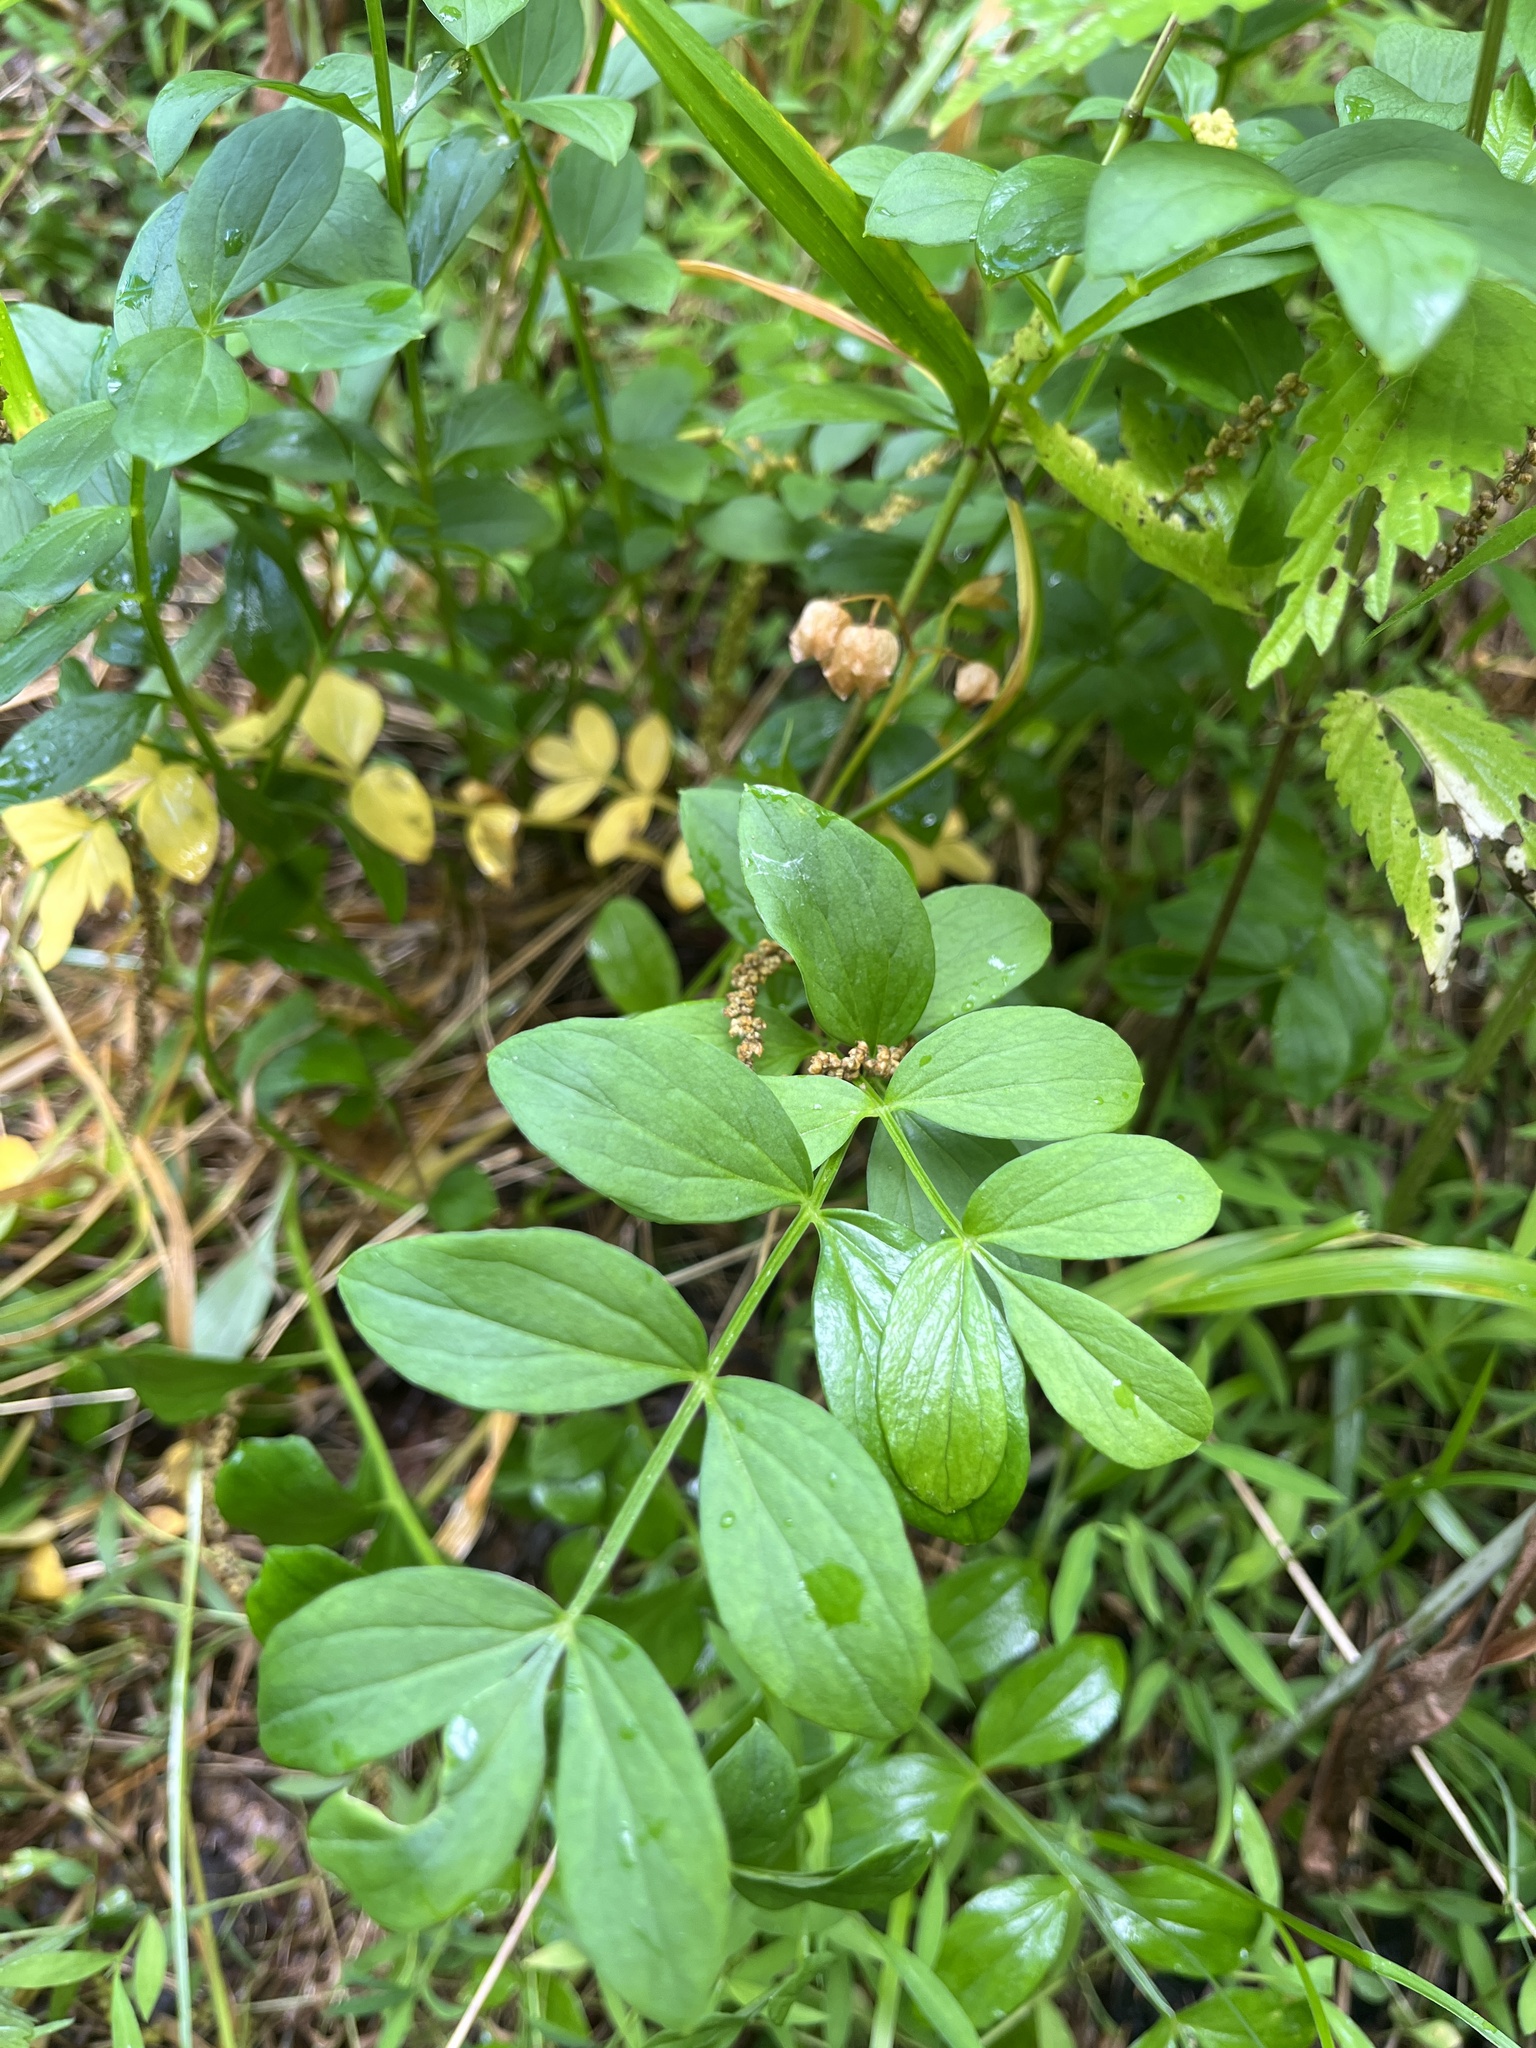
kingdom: Plantae
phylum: Tracheophyta
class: Magnoliopsida
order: Ericales
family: Polemoniaceae
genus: Polemonium
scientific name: Polemonium reptans
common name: Creeping jacob's-ladder
